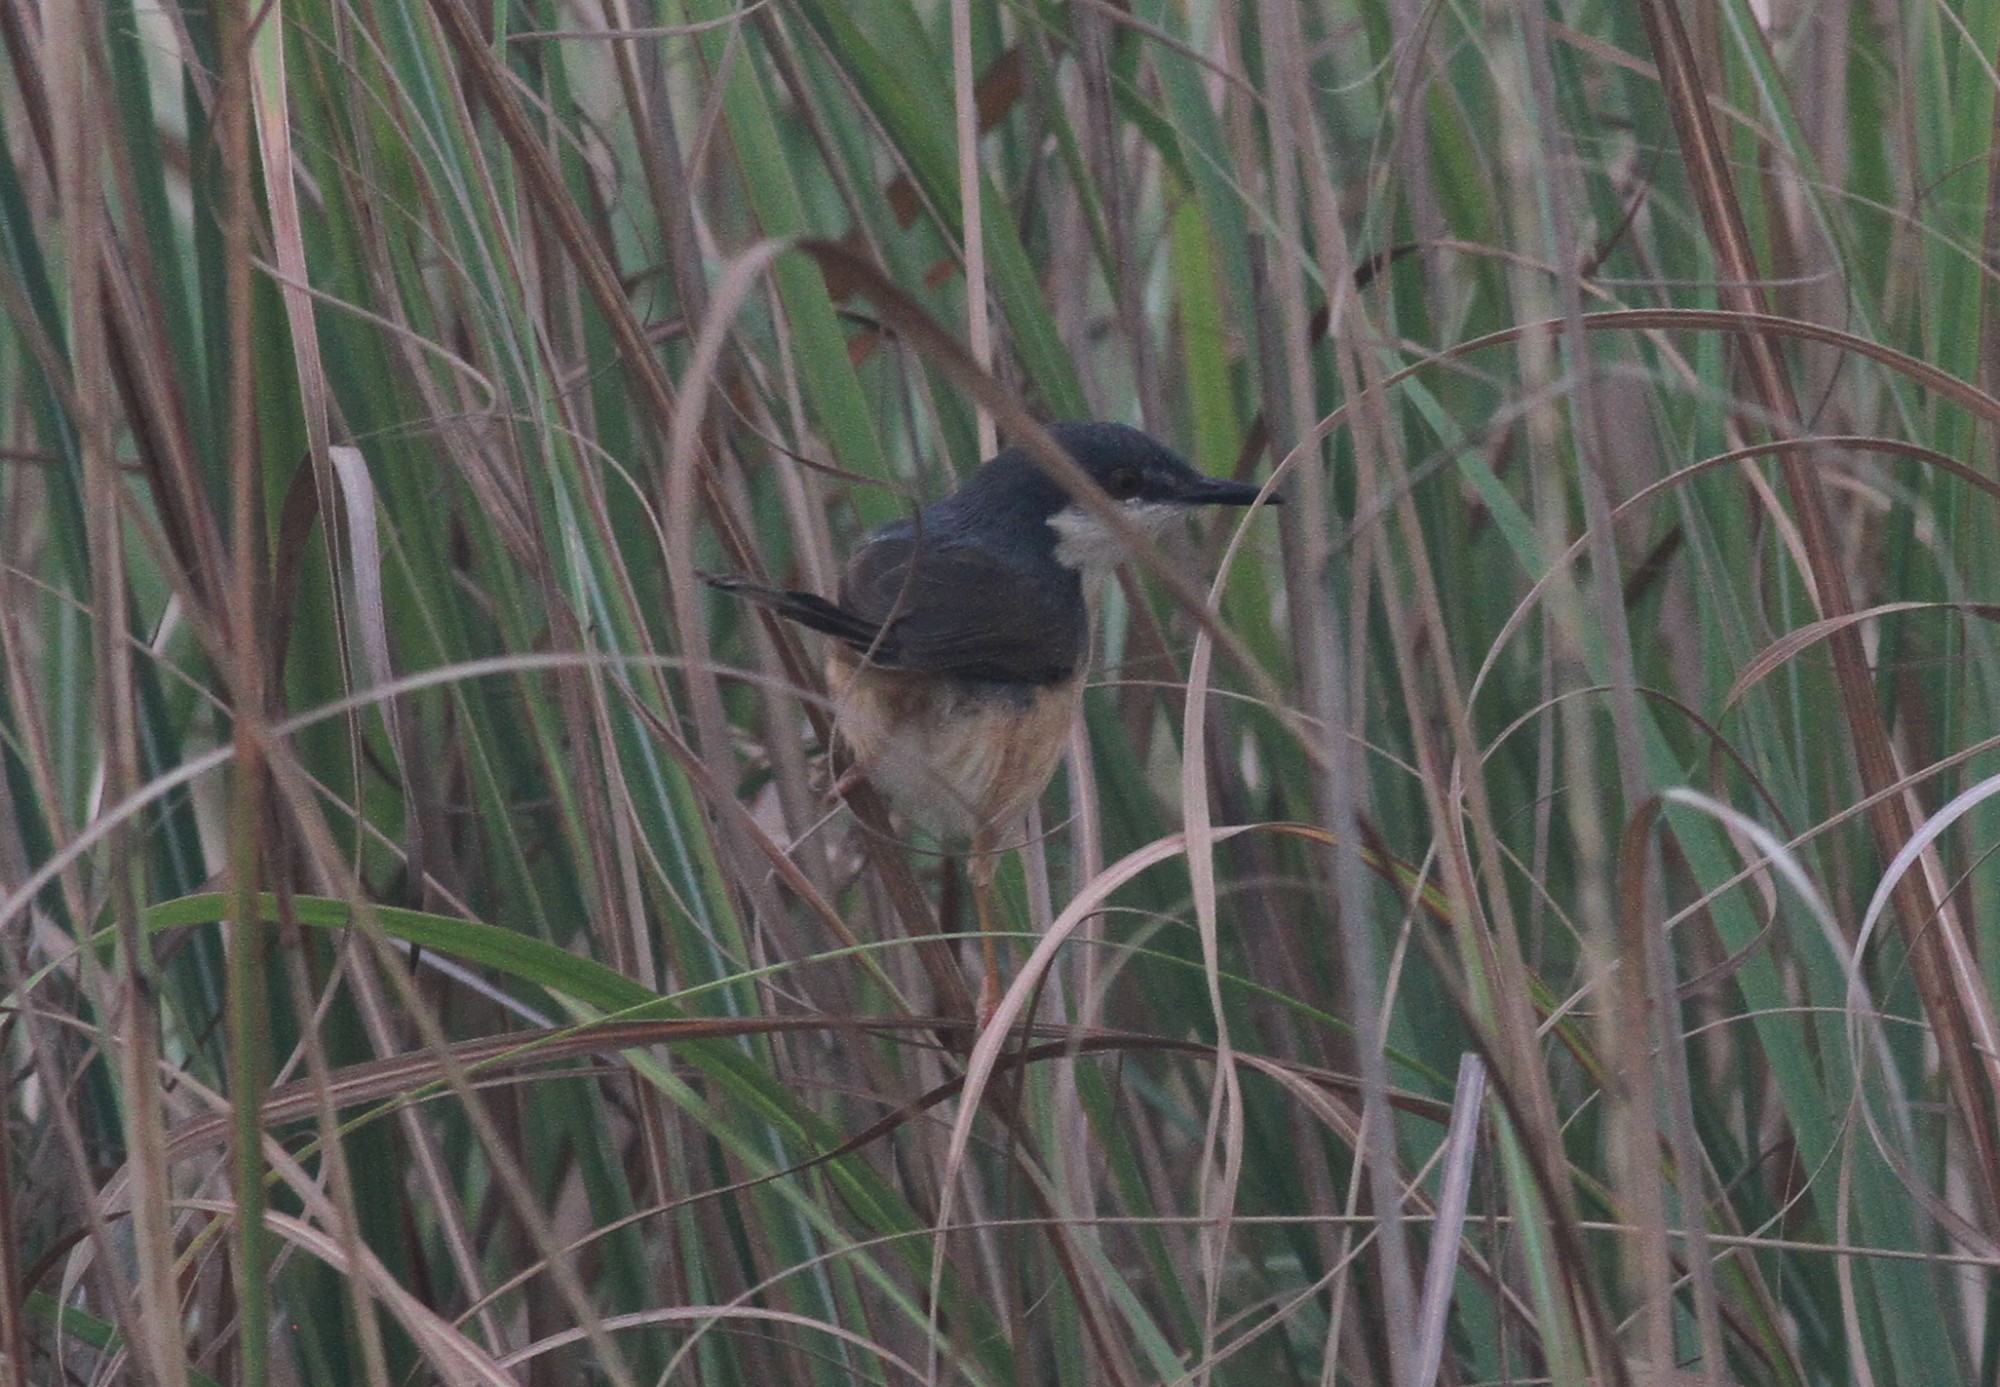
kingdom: Animalia
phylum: Chordata
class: Aves
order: Passeriformes
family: Cisticolidae
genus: Prinia
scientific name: Prinia socialis
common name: Ashy prinia
